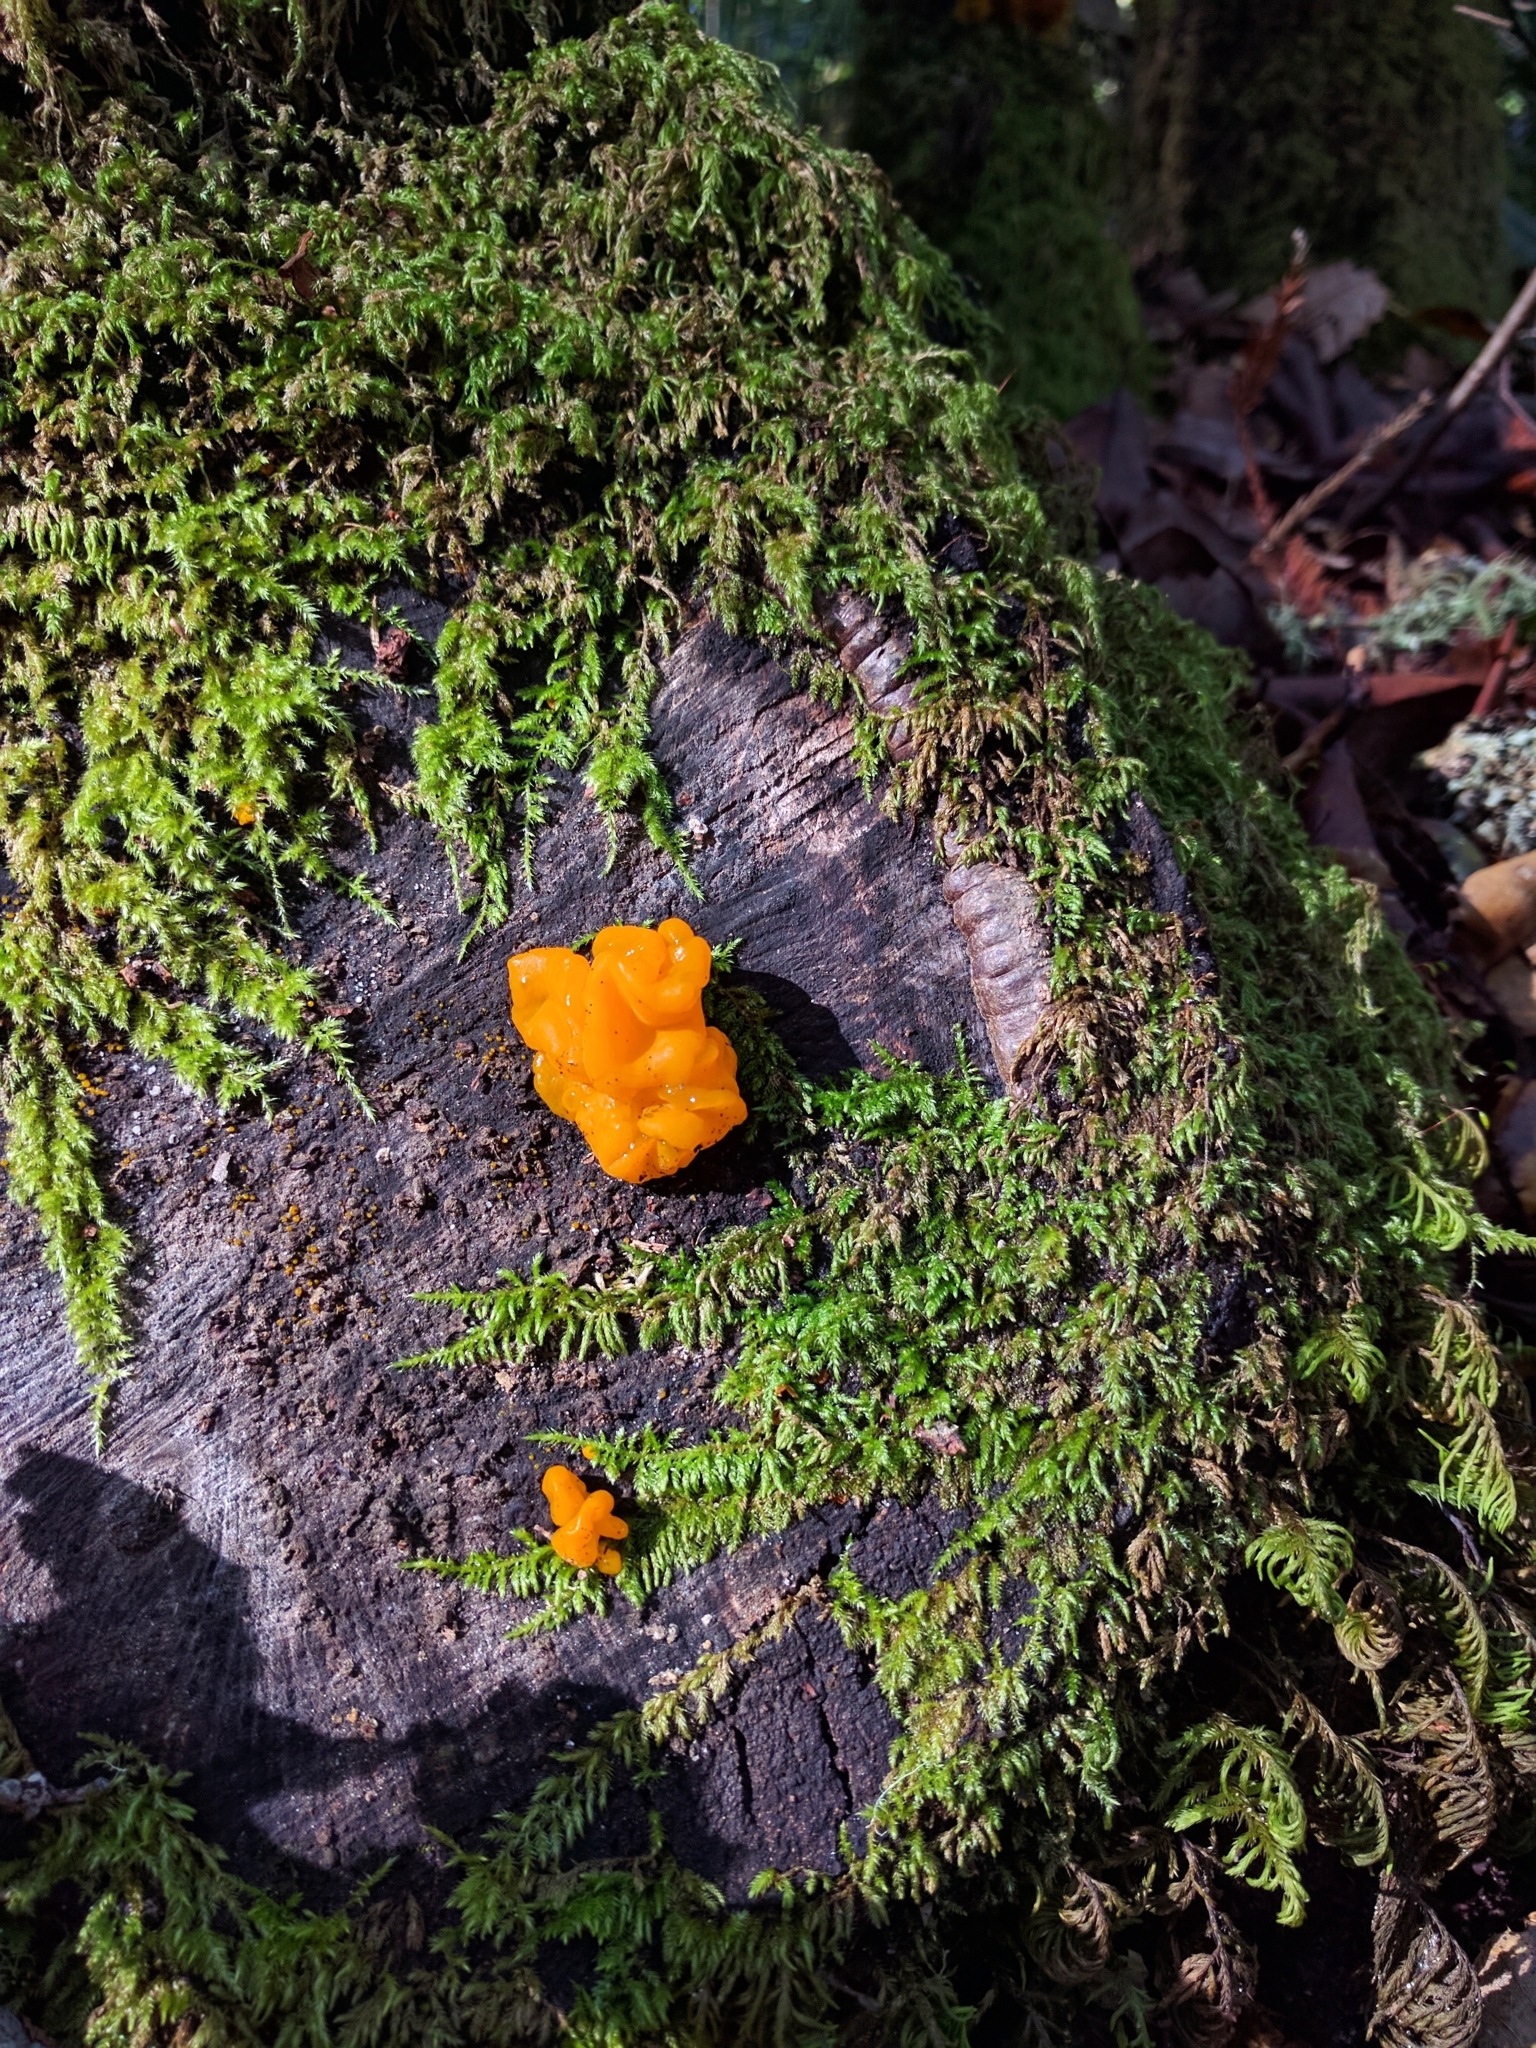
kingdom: Fungi
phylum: Basidiomycota
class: Tremellomycetes
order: Tremellales
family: Naemateliaceae
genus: Naematelia
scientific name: Naematelia aurantia
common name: Golden ear
